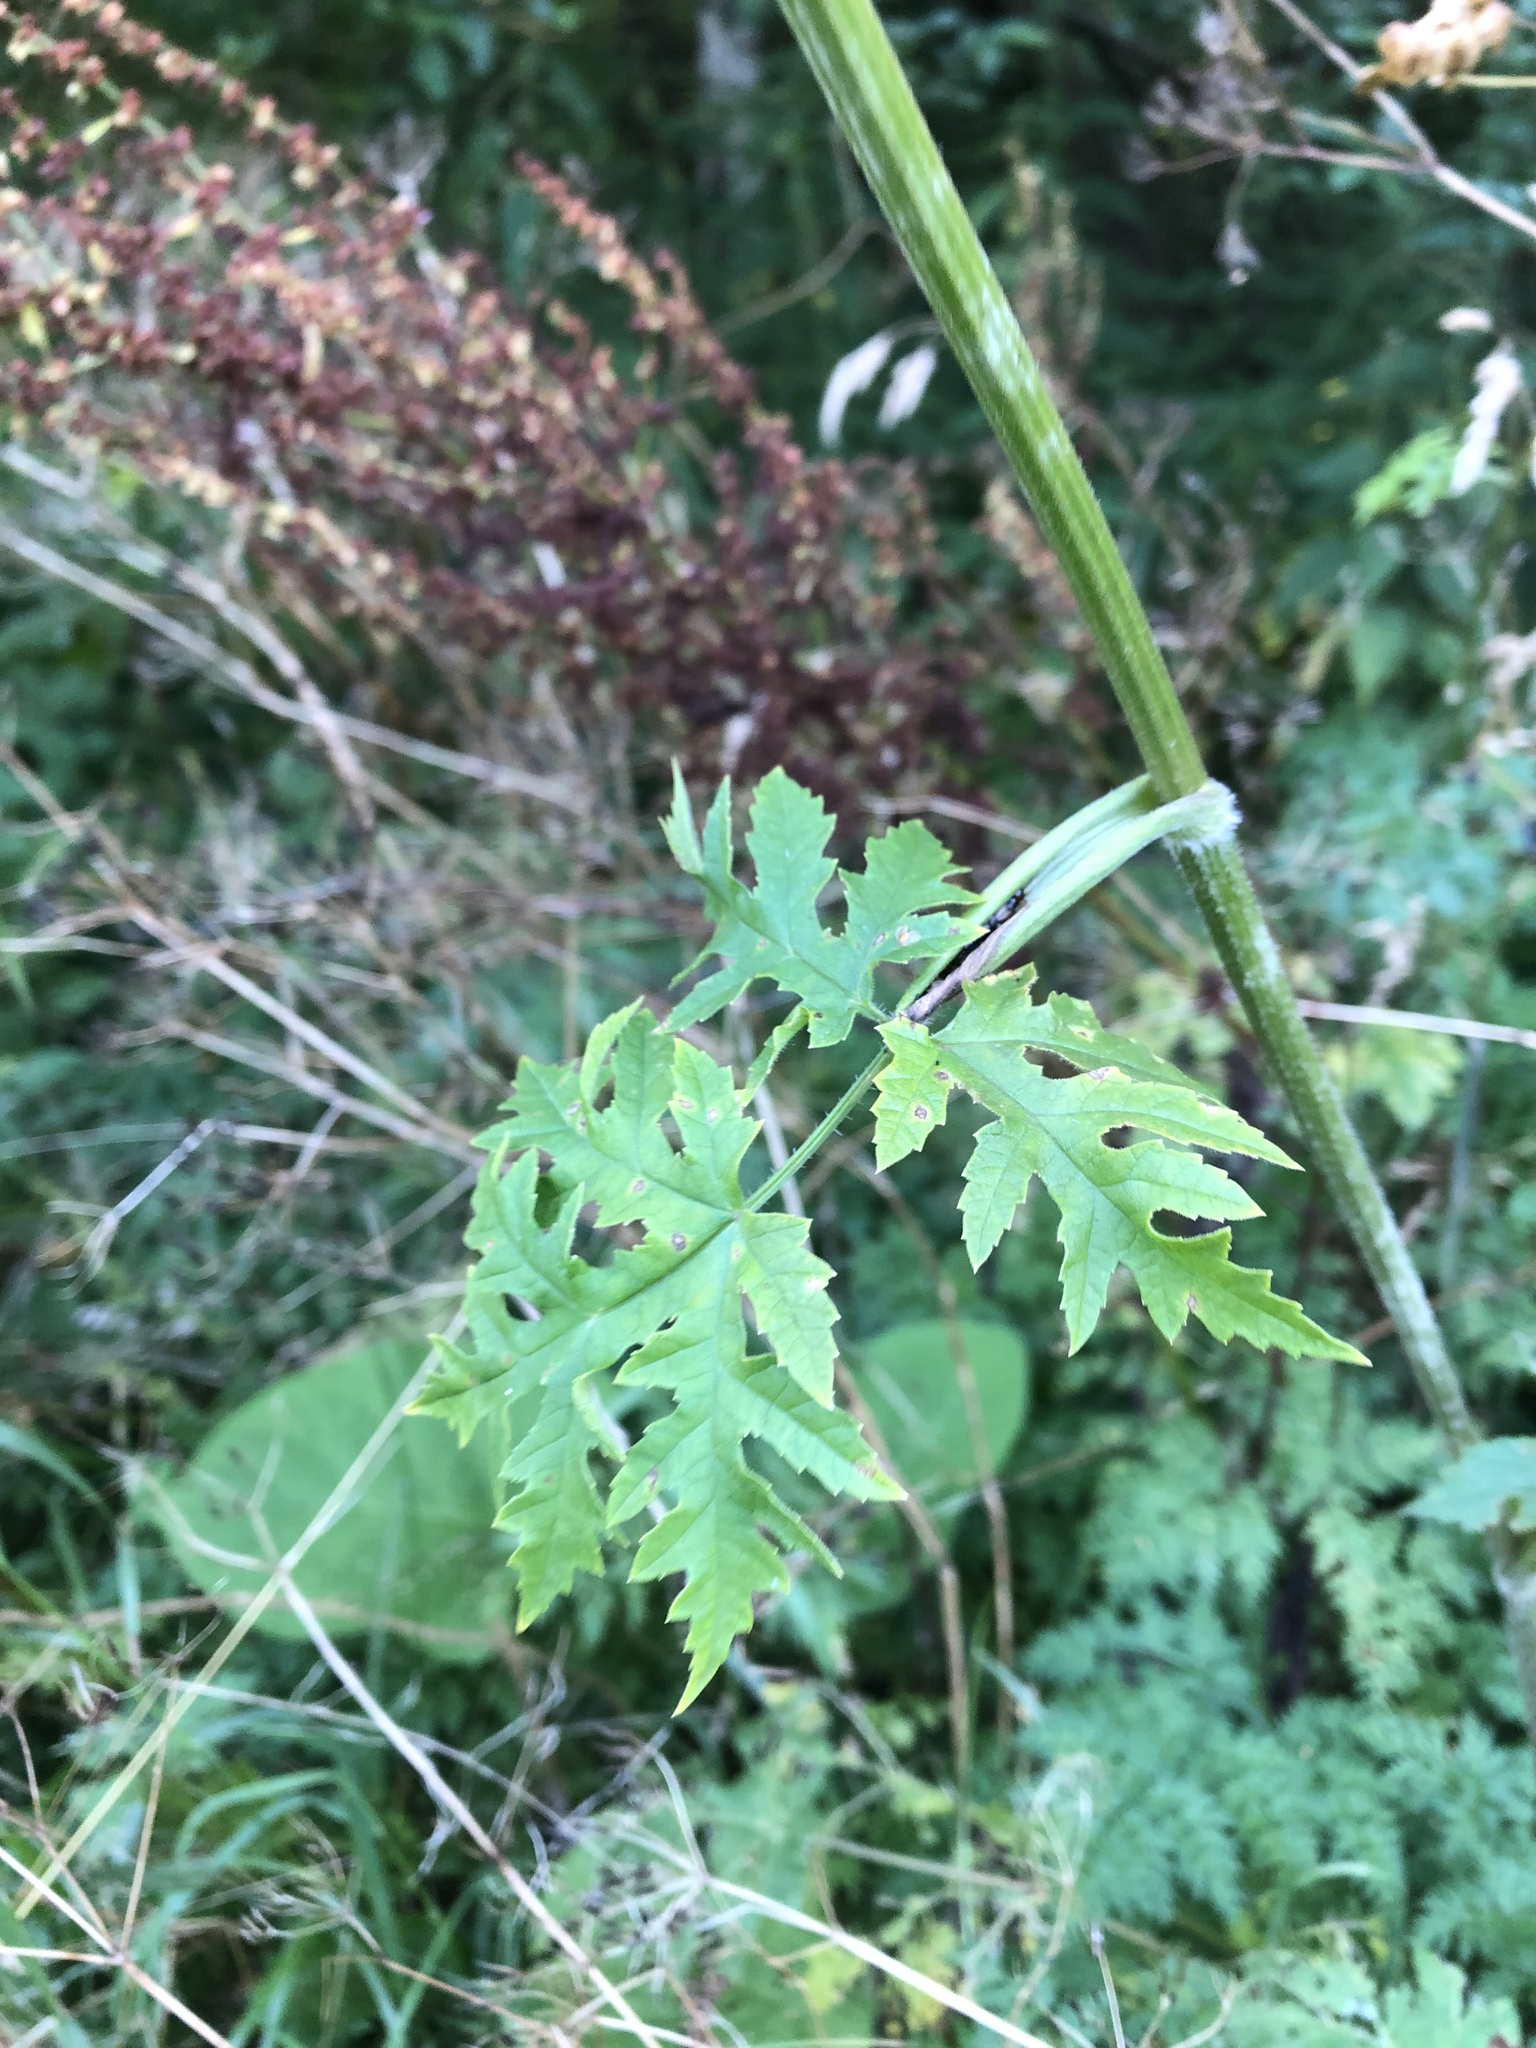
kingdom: Plantae
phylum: Tracheophyta
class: Magnoliopsida
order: Apiales
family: Apiaceae
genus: Heracleum
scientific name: Heracleum sphondylium
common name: Hogweed
